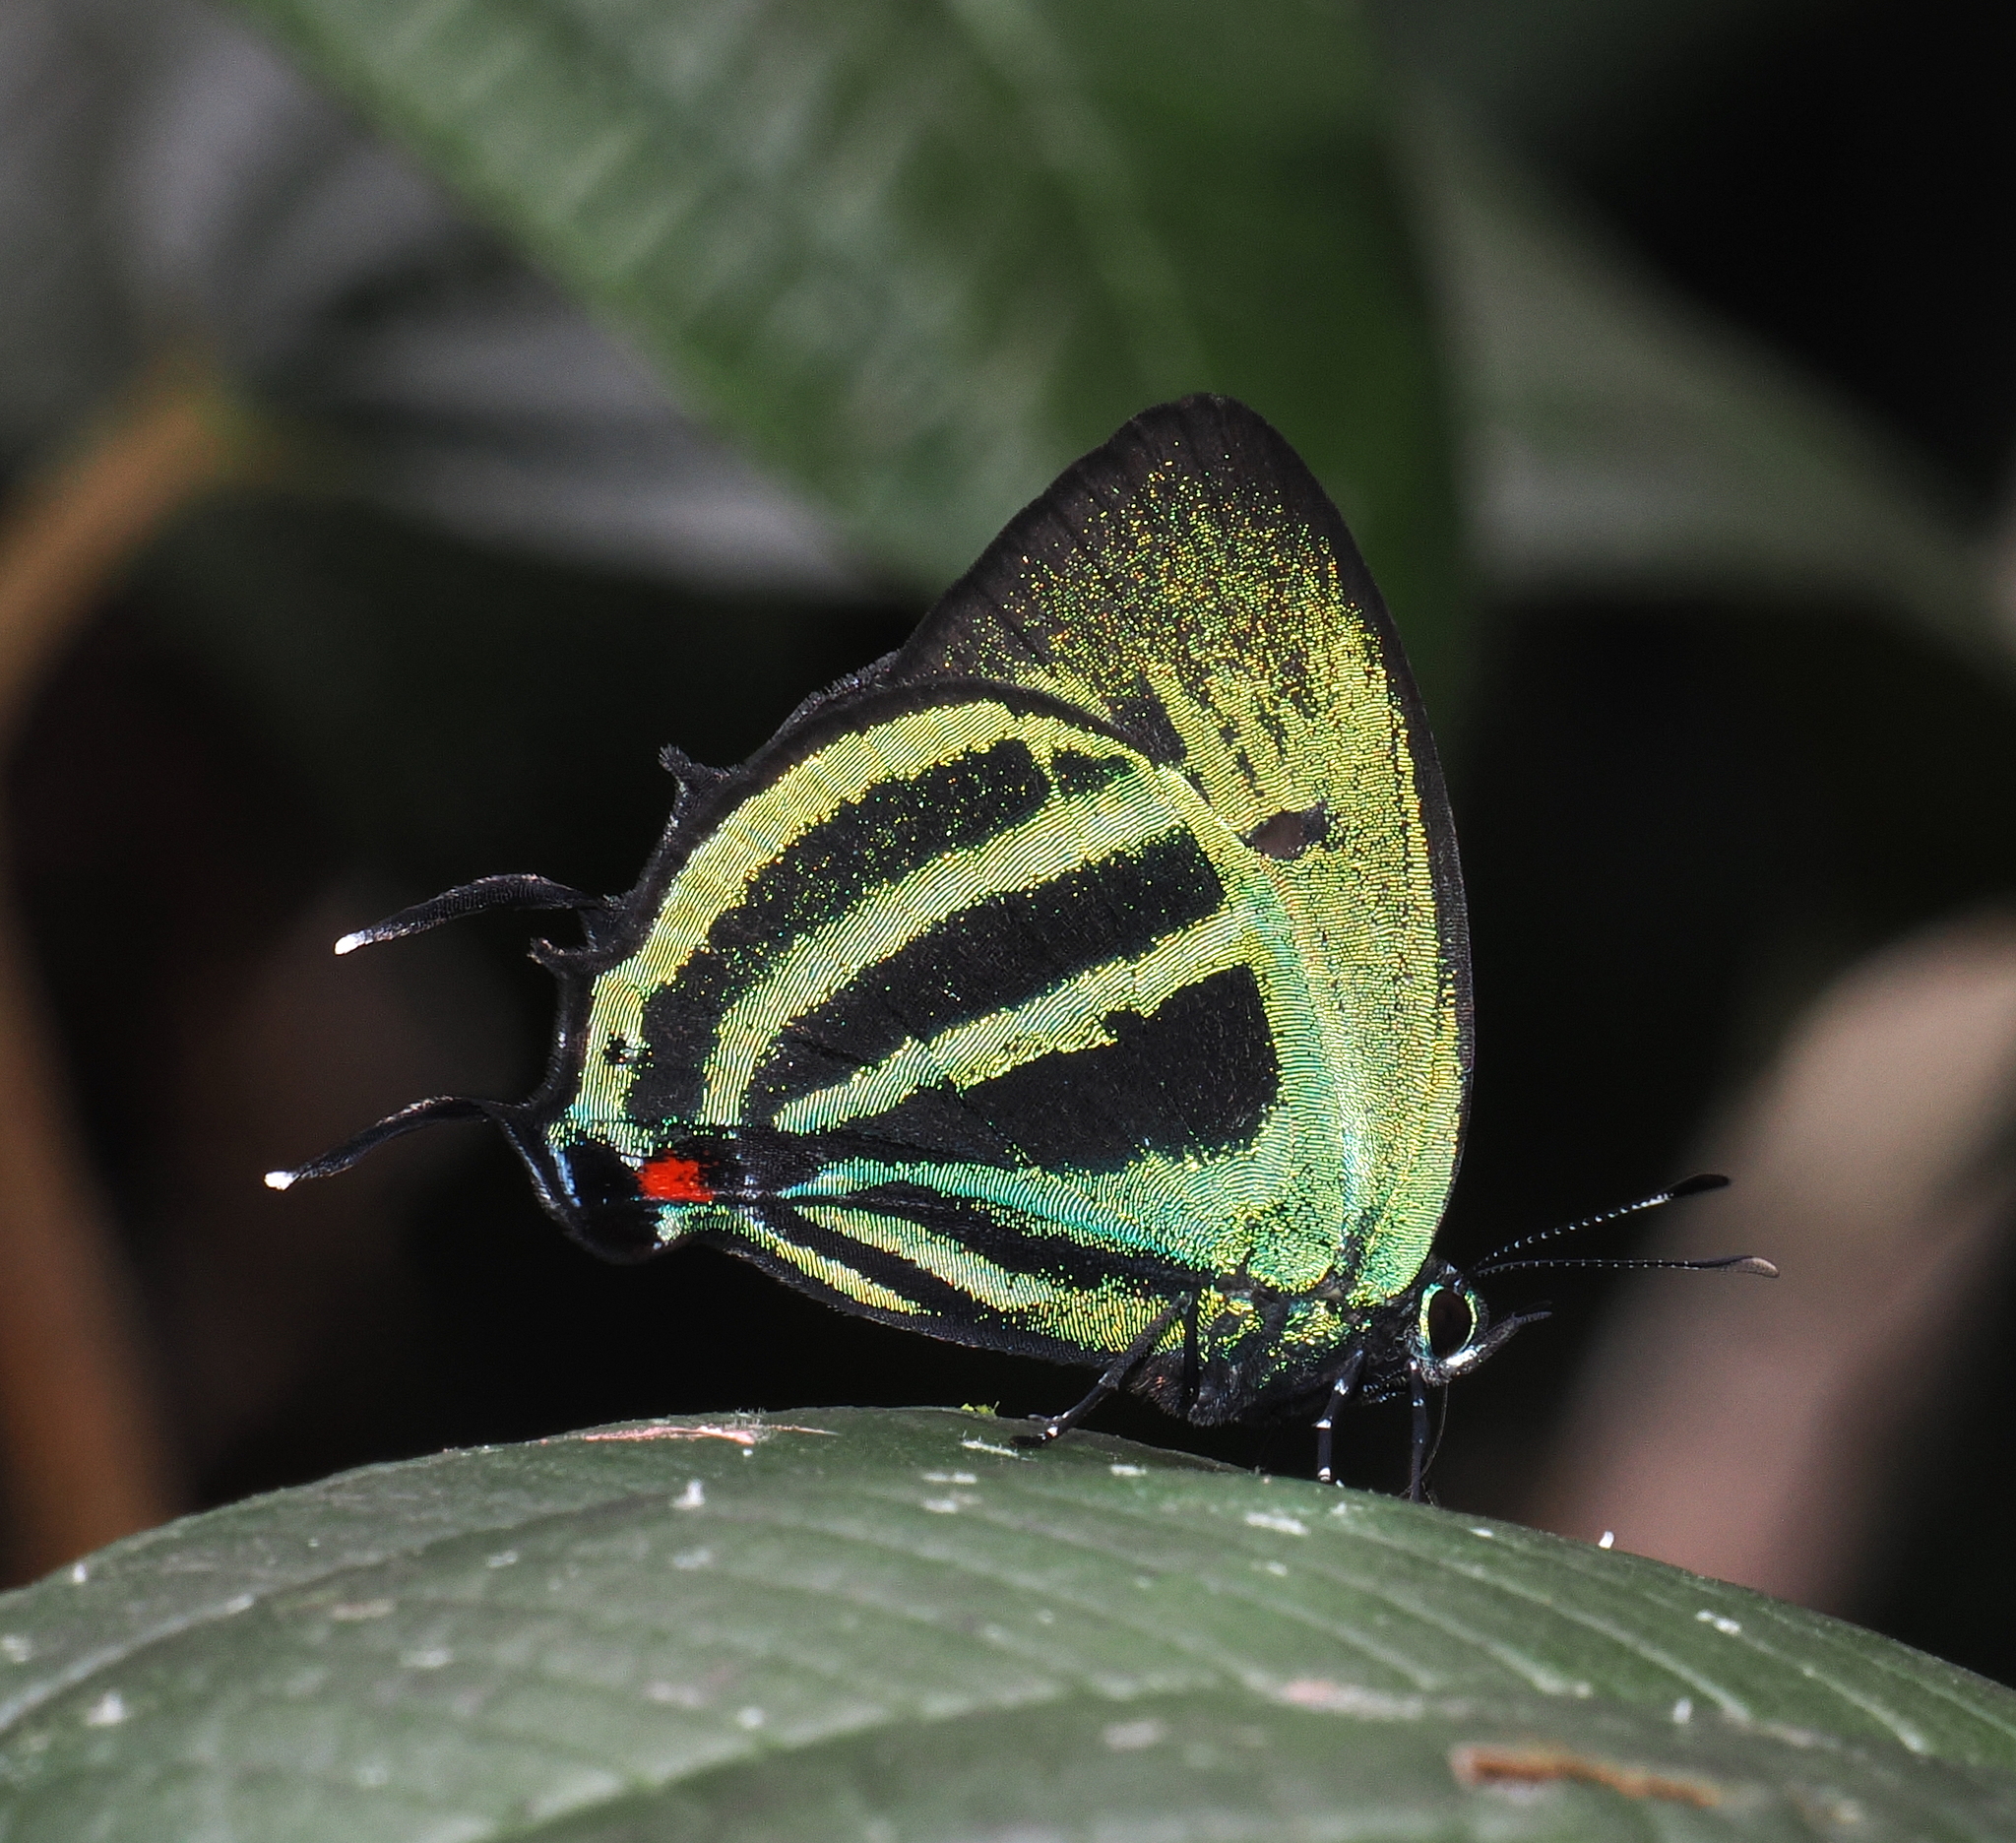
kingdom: Animalia
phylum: Arthropoda
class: Insecta
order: Lepidoptera
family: Lycaenidae
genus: Paiwarria
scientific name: Paiwarria
